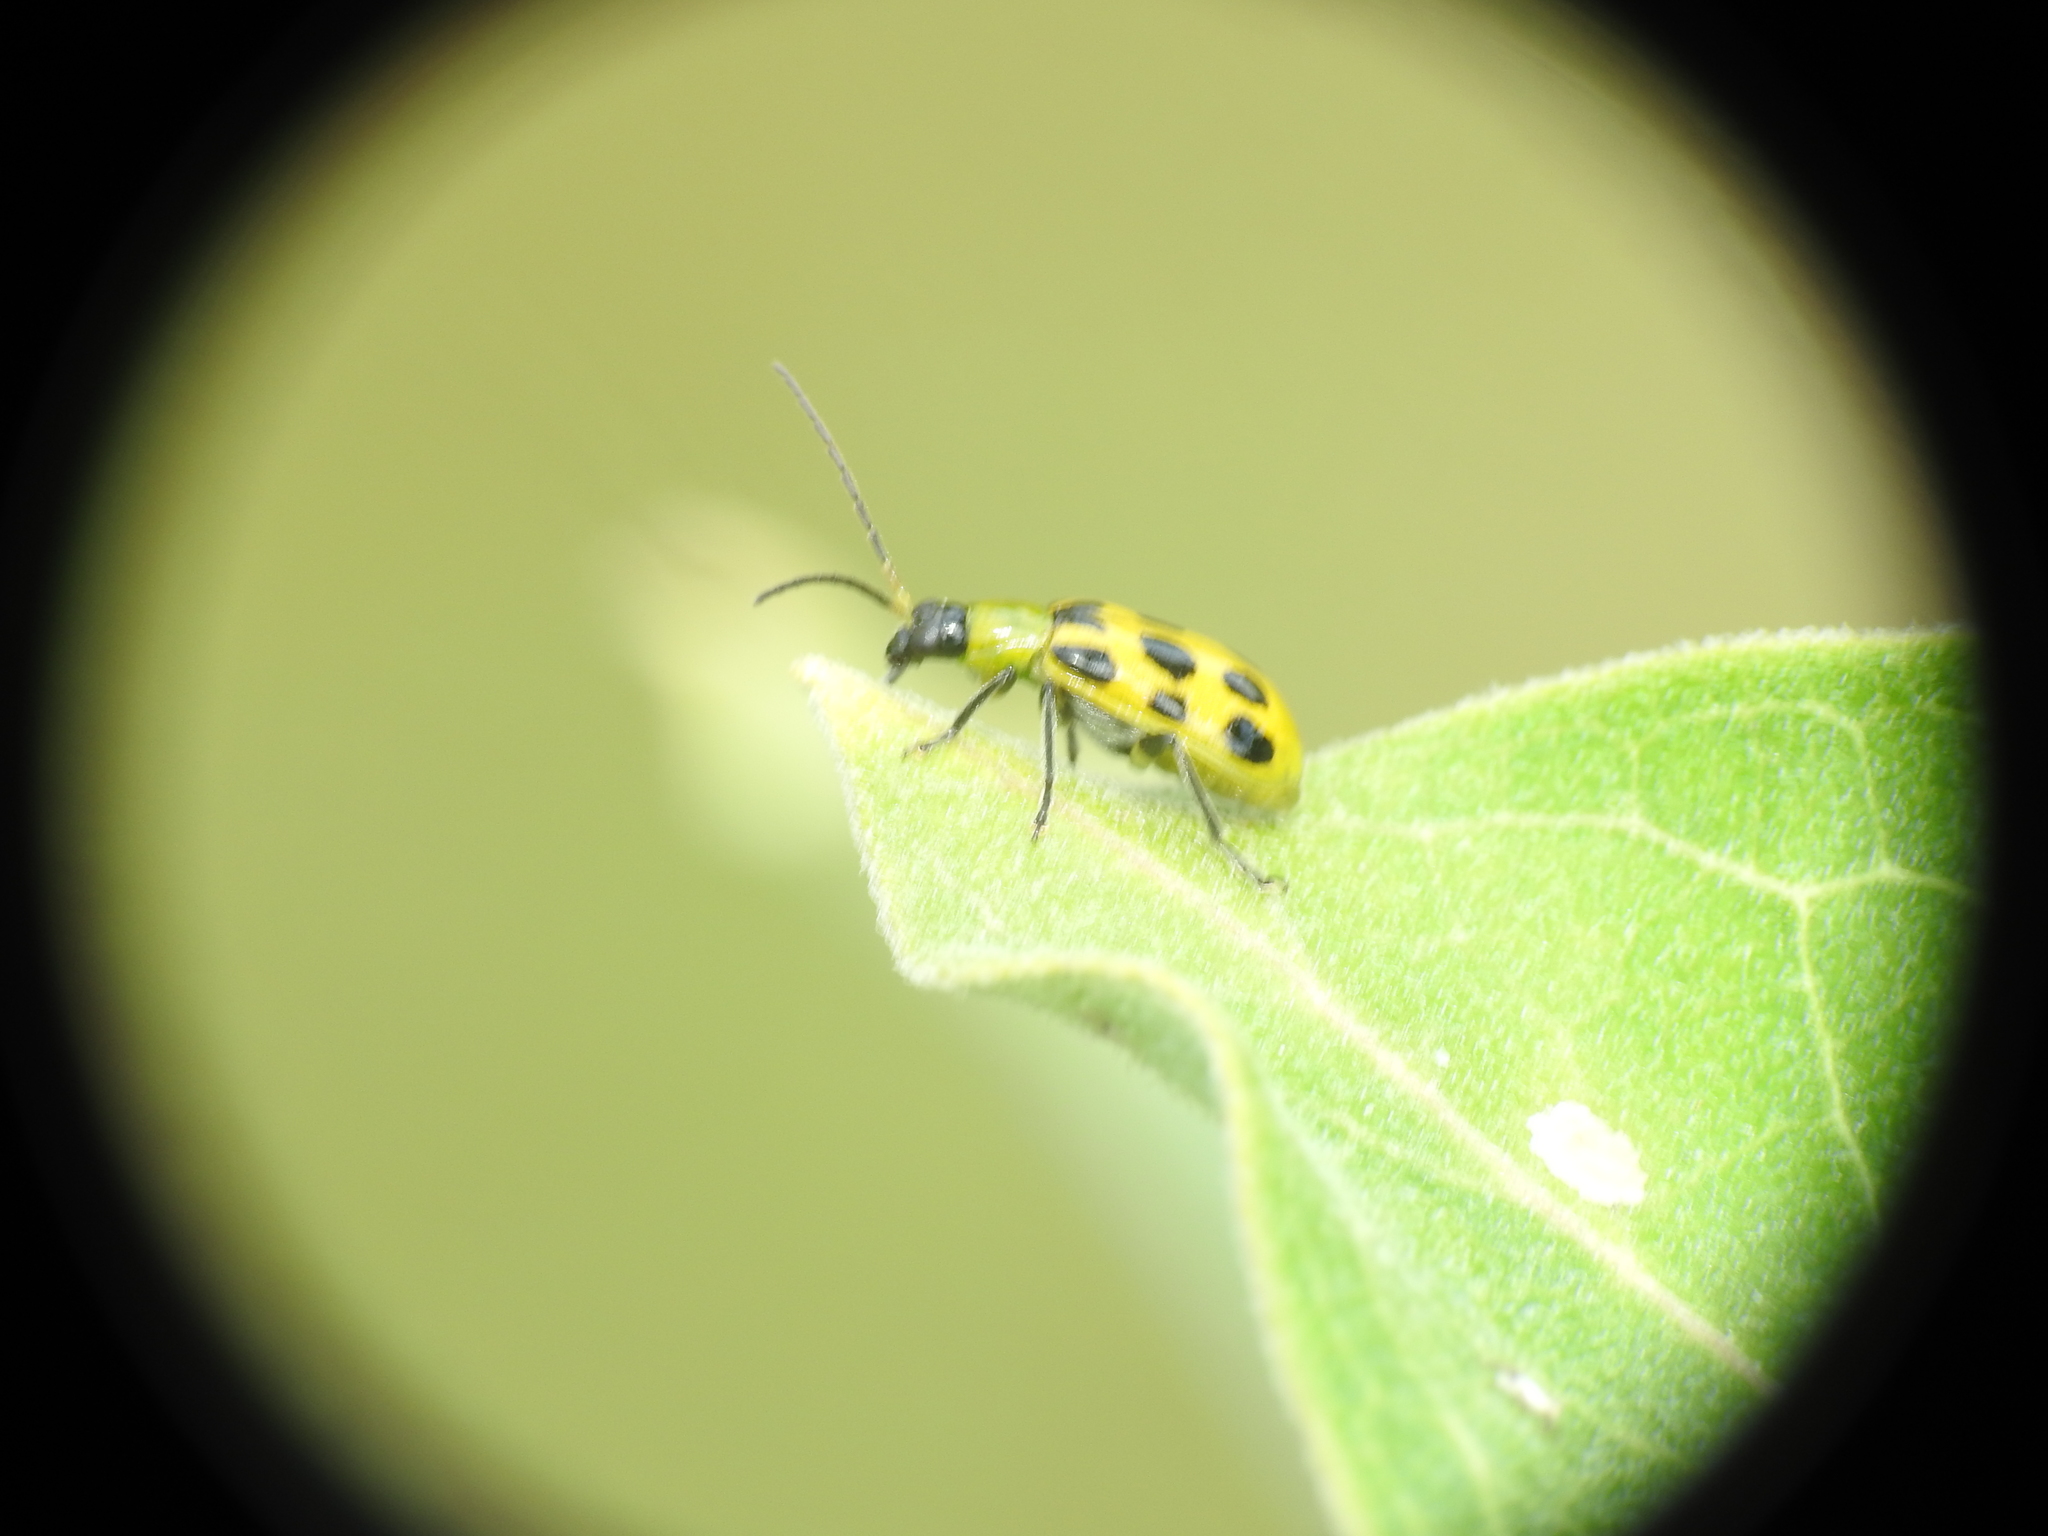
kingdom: Animalia
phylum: Arthropoda
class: Insecta
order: Coleoptera
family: Chrysomelidae
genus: Diabrotica
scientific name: Diabrotica undecimpunctata
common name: Spotted cucumber beetle
